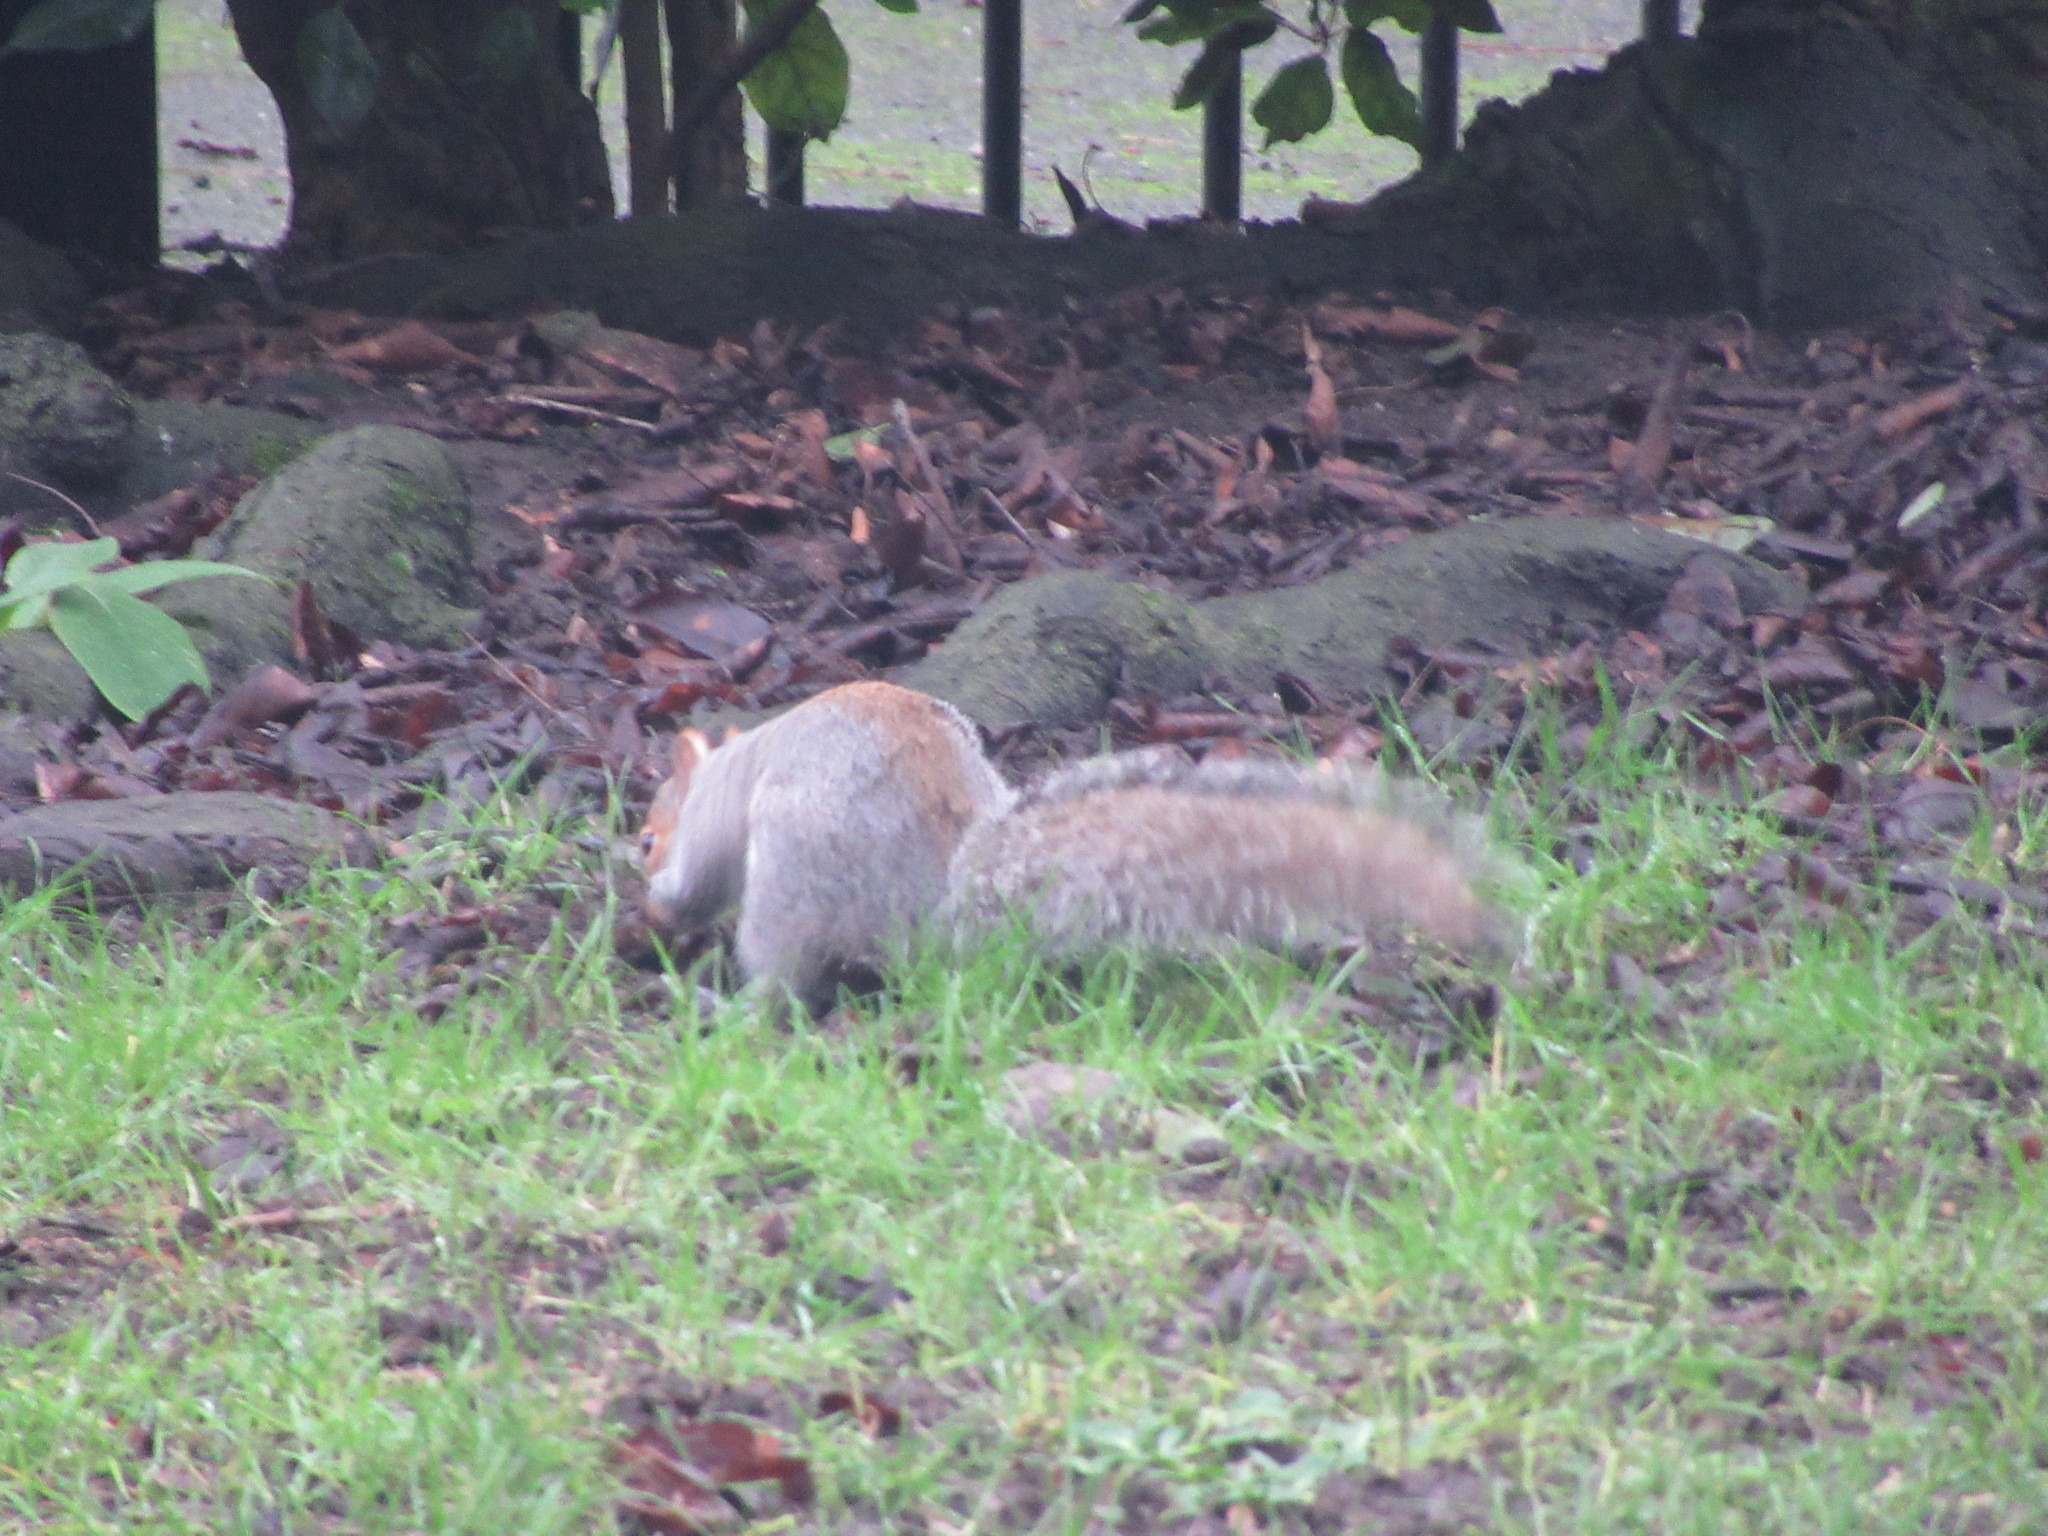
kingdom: Animalia
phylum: Chordata
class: Mammalia
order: Rodentia
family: Sciuridae
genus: Sciurus
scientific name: Sciurus carolinensis
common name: Eastern gray squirrel
